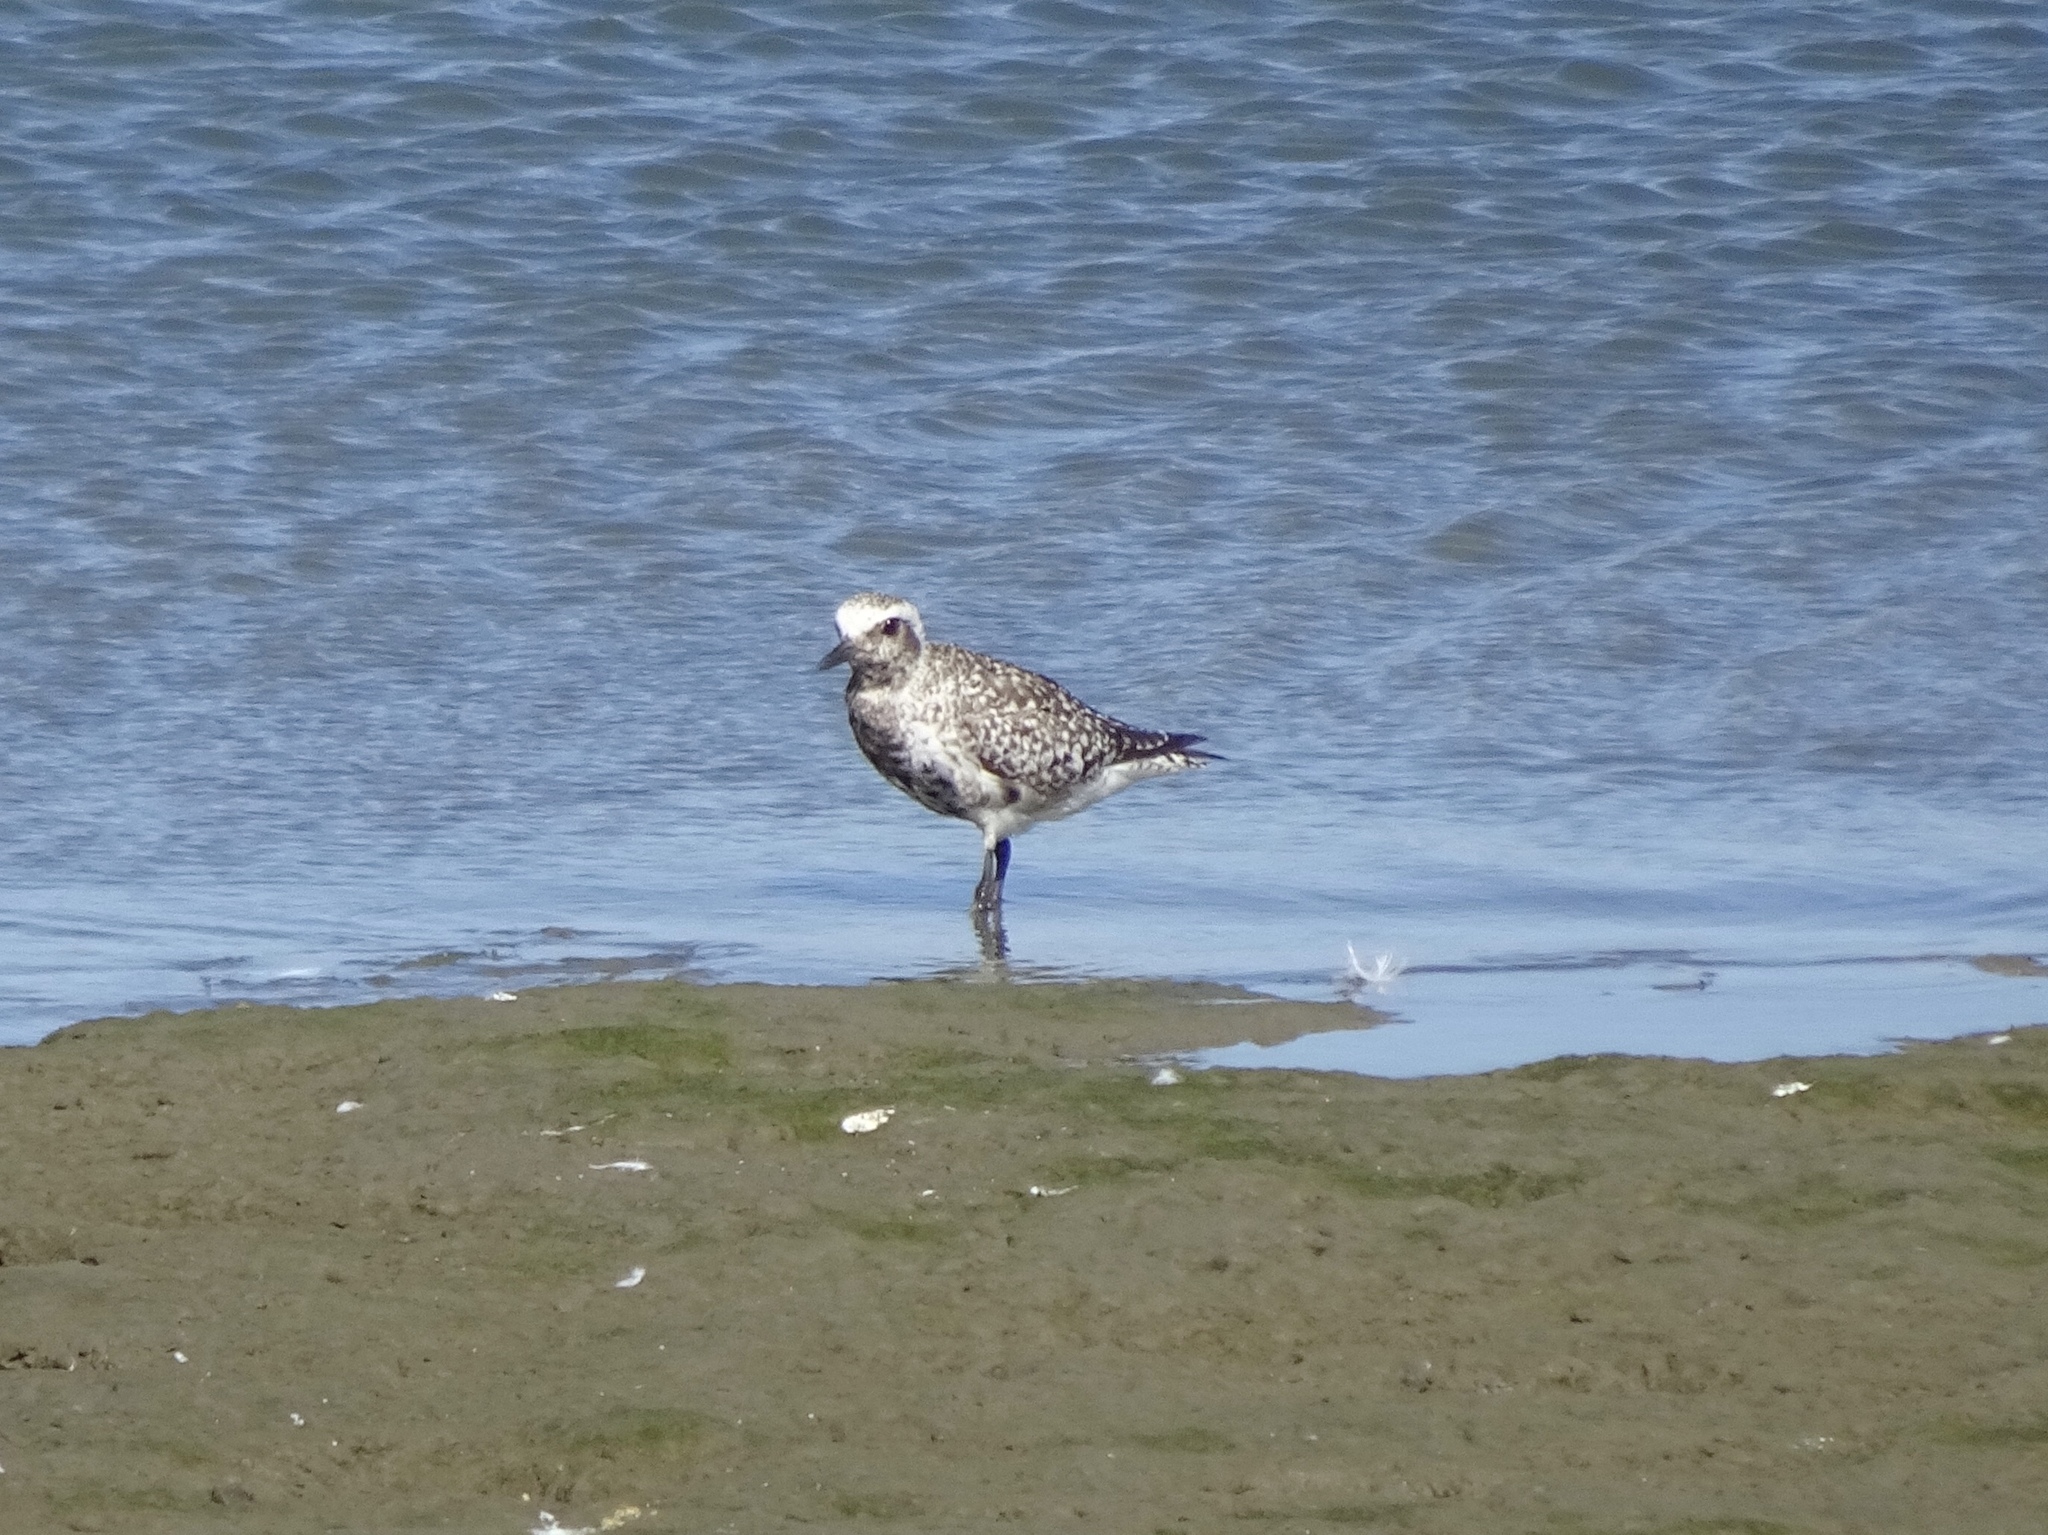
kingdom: Animalia
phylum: Chordata
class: Aves
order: Charadriiformes
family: Charadriidae
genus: Pluvialis
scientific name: Pluvialis squatarola
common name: Grey plover
